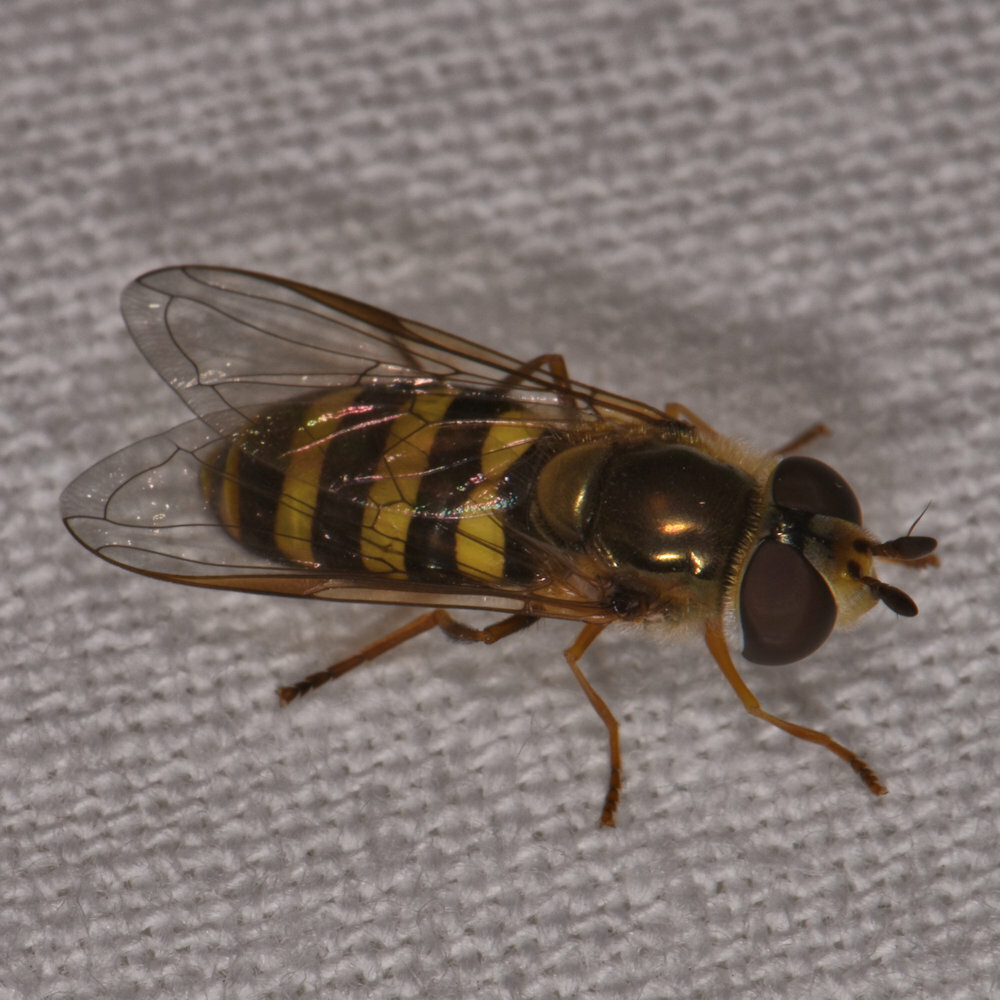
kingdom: Animalia
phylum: Arthropoda
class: Insecta
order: Diptera
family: Syrphidae
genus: Eupeodes
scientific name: Eupeodes
